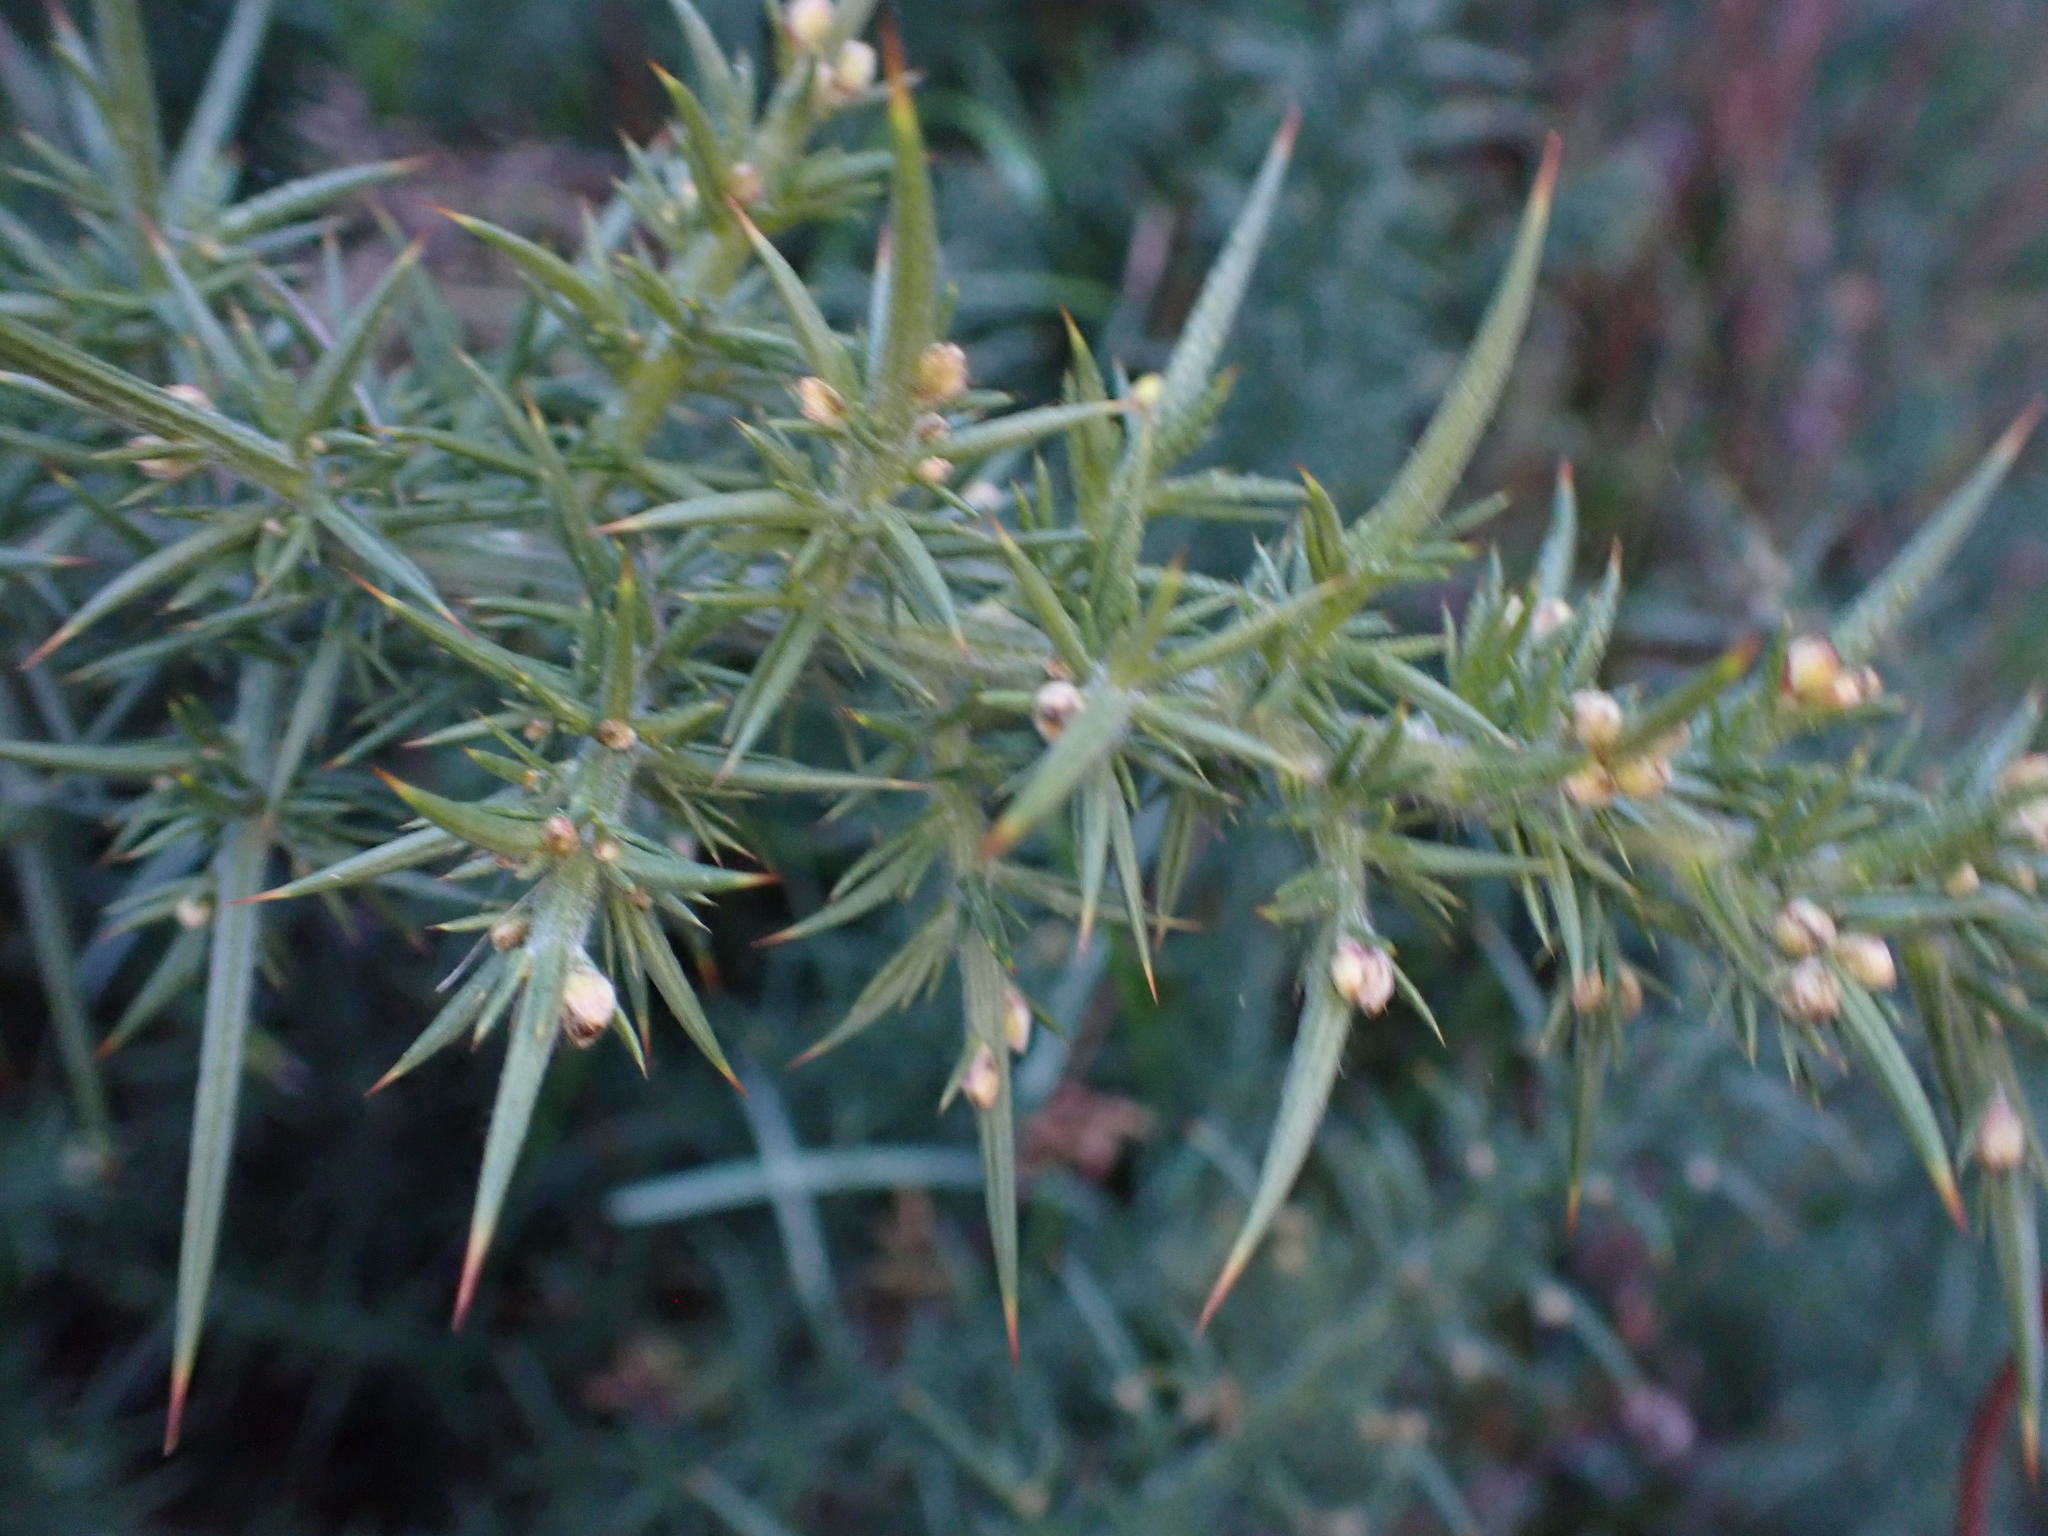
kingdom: Plantae
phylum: Tracheophyta
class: Magnoliopsida
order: Fabales
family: Fabaceae
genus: Ulex
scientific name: Ulex europaeus
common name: Common gorse
